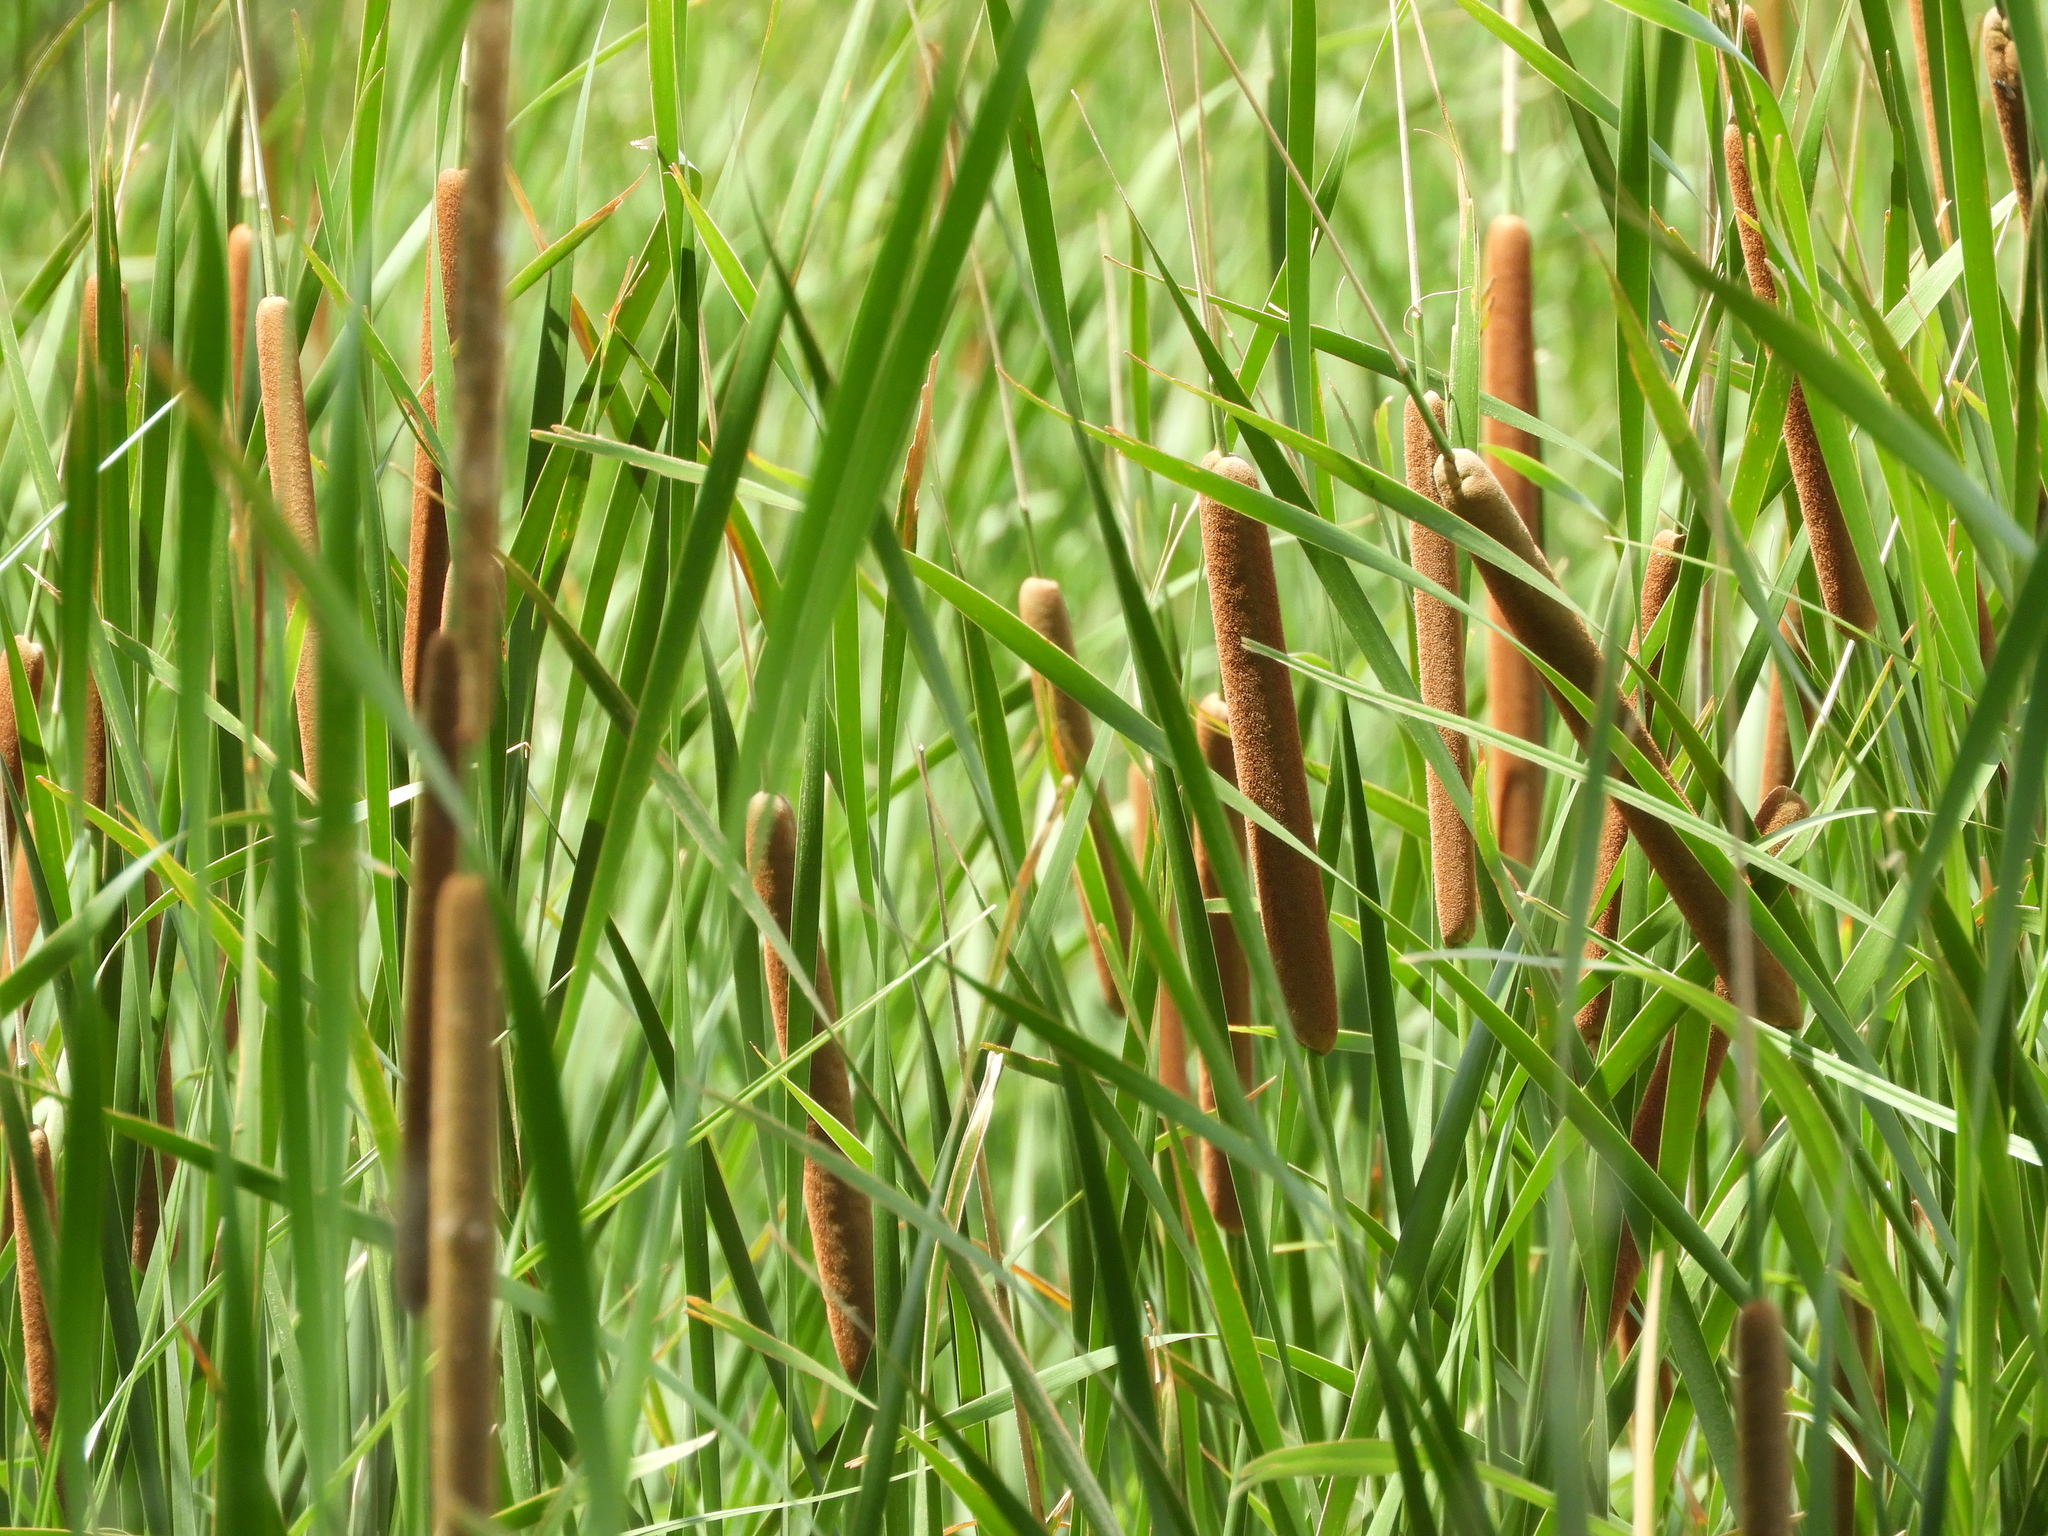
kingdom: Plantae
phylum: Tracheophyta
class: Liliopsida
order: Poales
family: Typhaceae
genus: Typha
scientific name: Typha angustifolia
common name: Lesser bulrush
